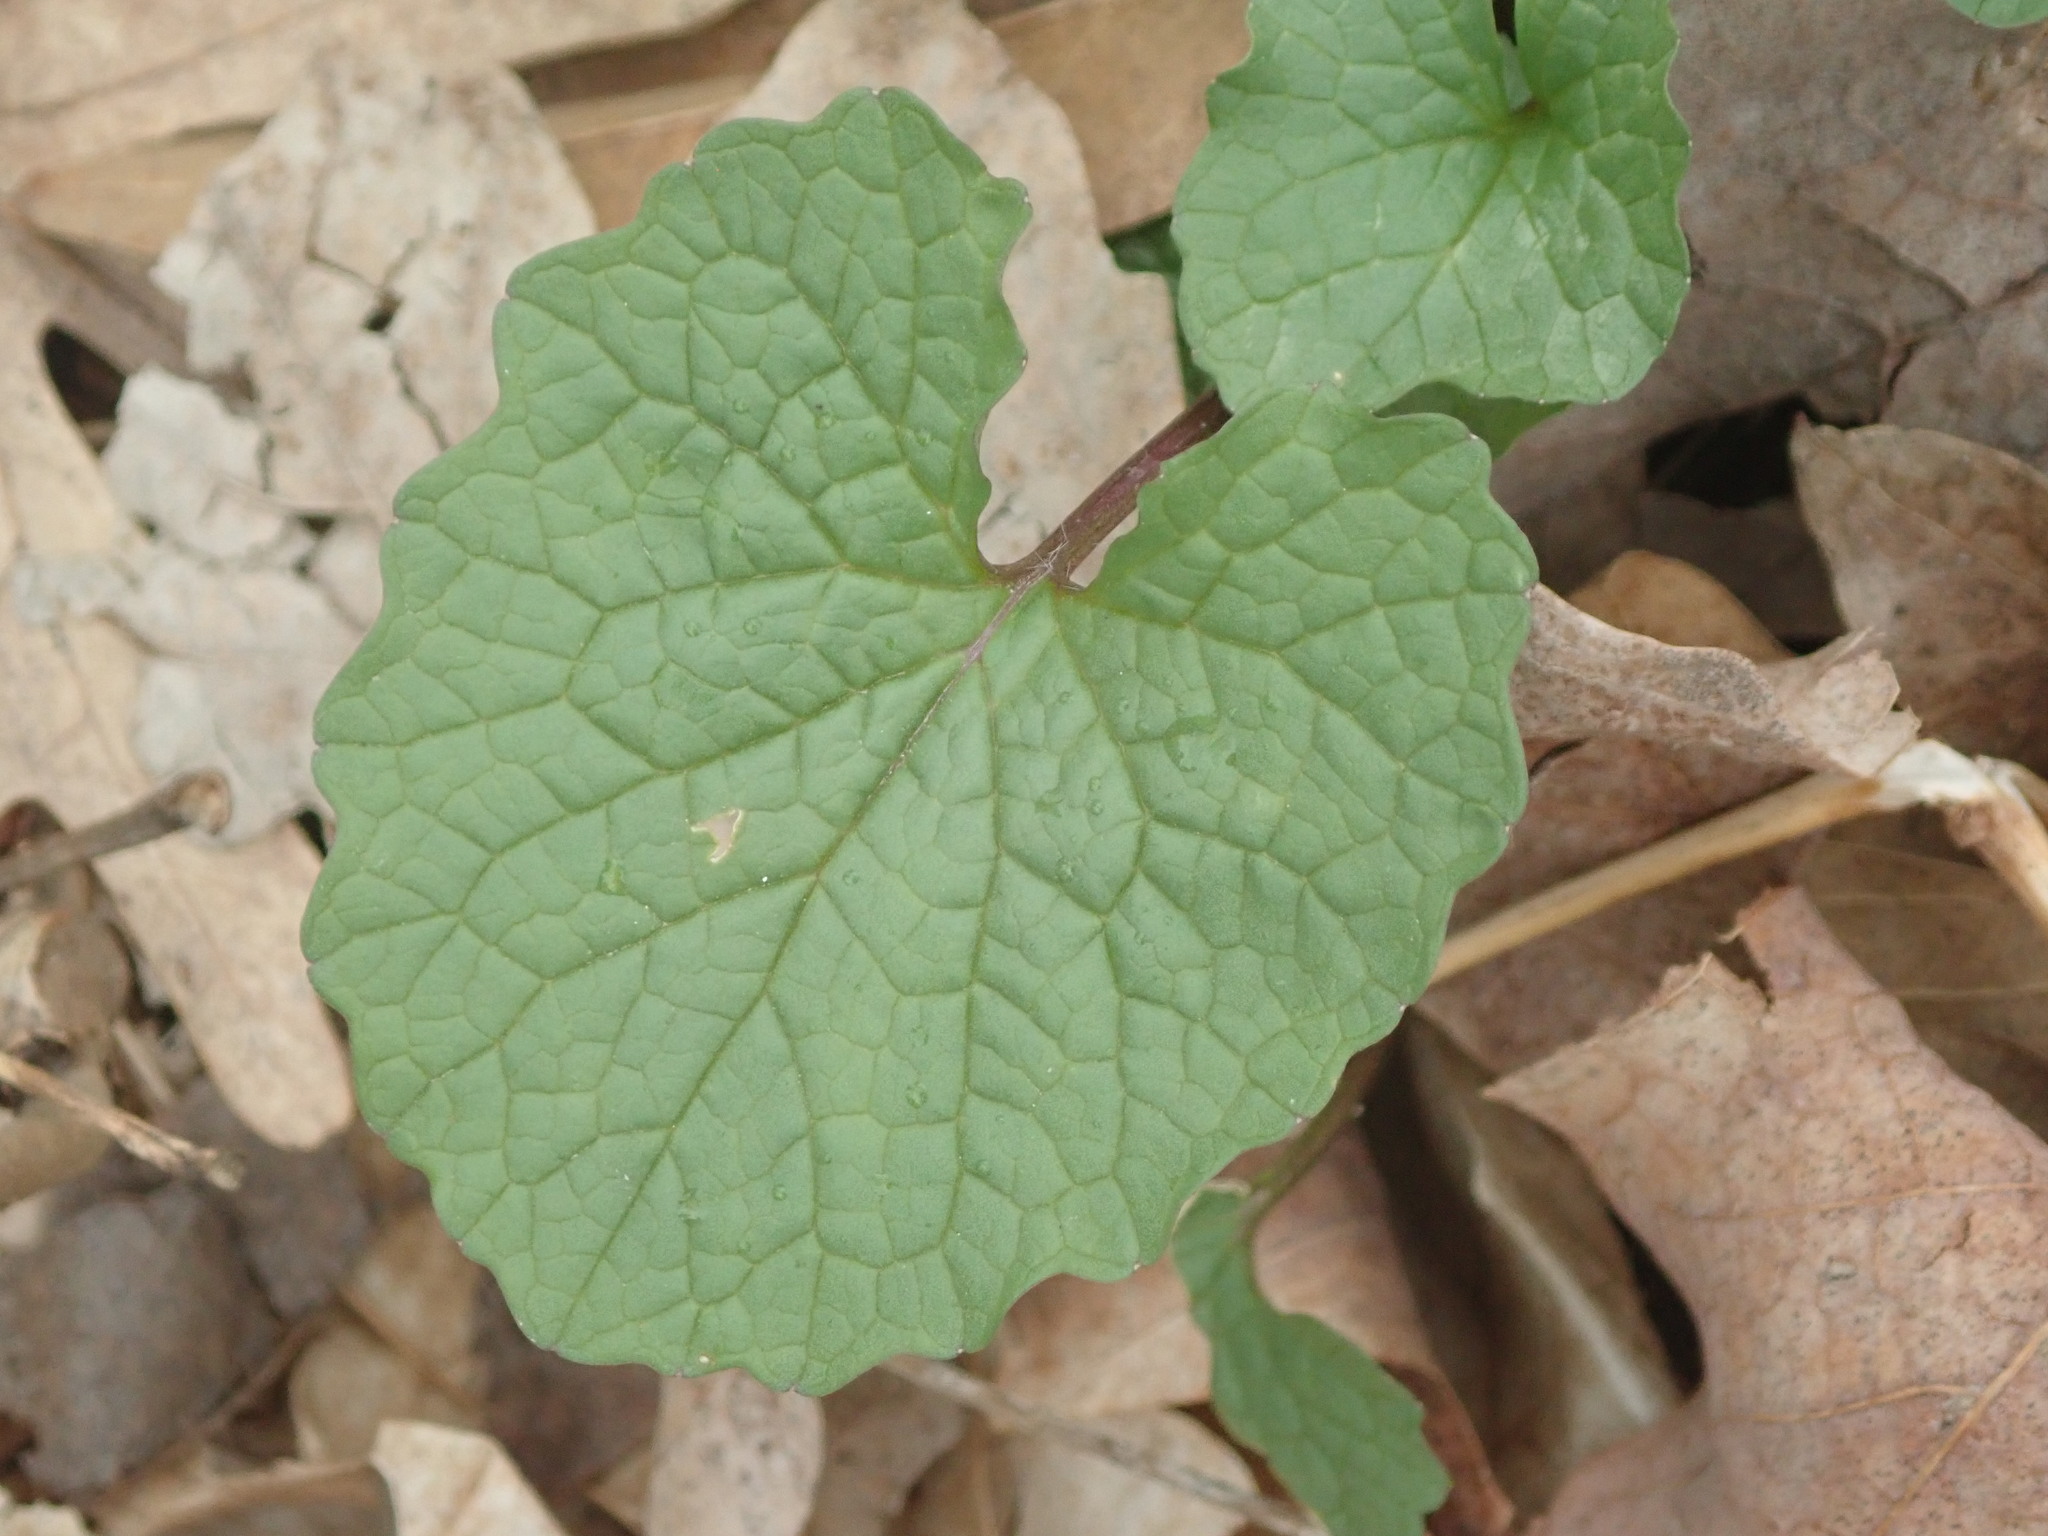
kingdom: Plantae
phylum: Tracheophyta
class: Magnoliopsida
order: Brassicales
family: Brassicaceae
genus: Alliaria
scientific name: Alliaria petiolata
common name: Garlic mustard
